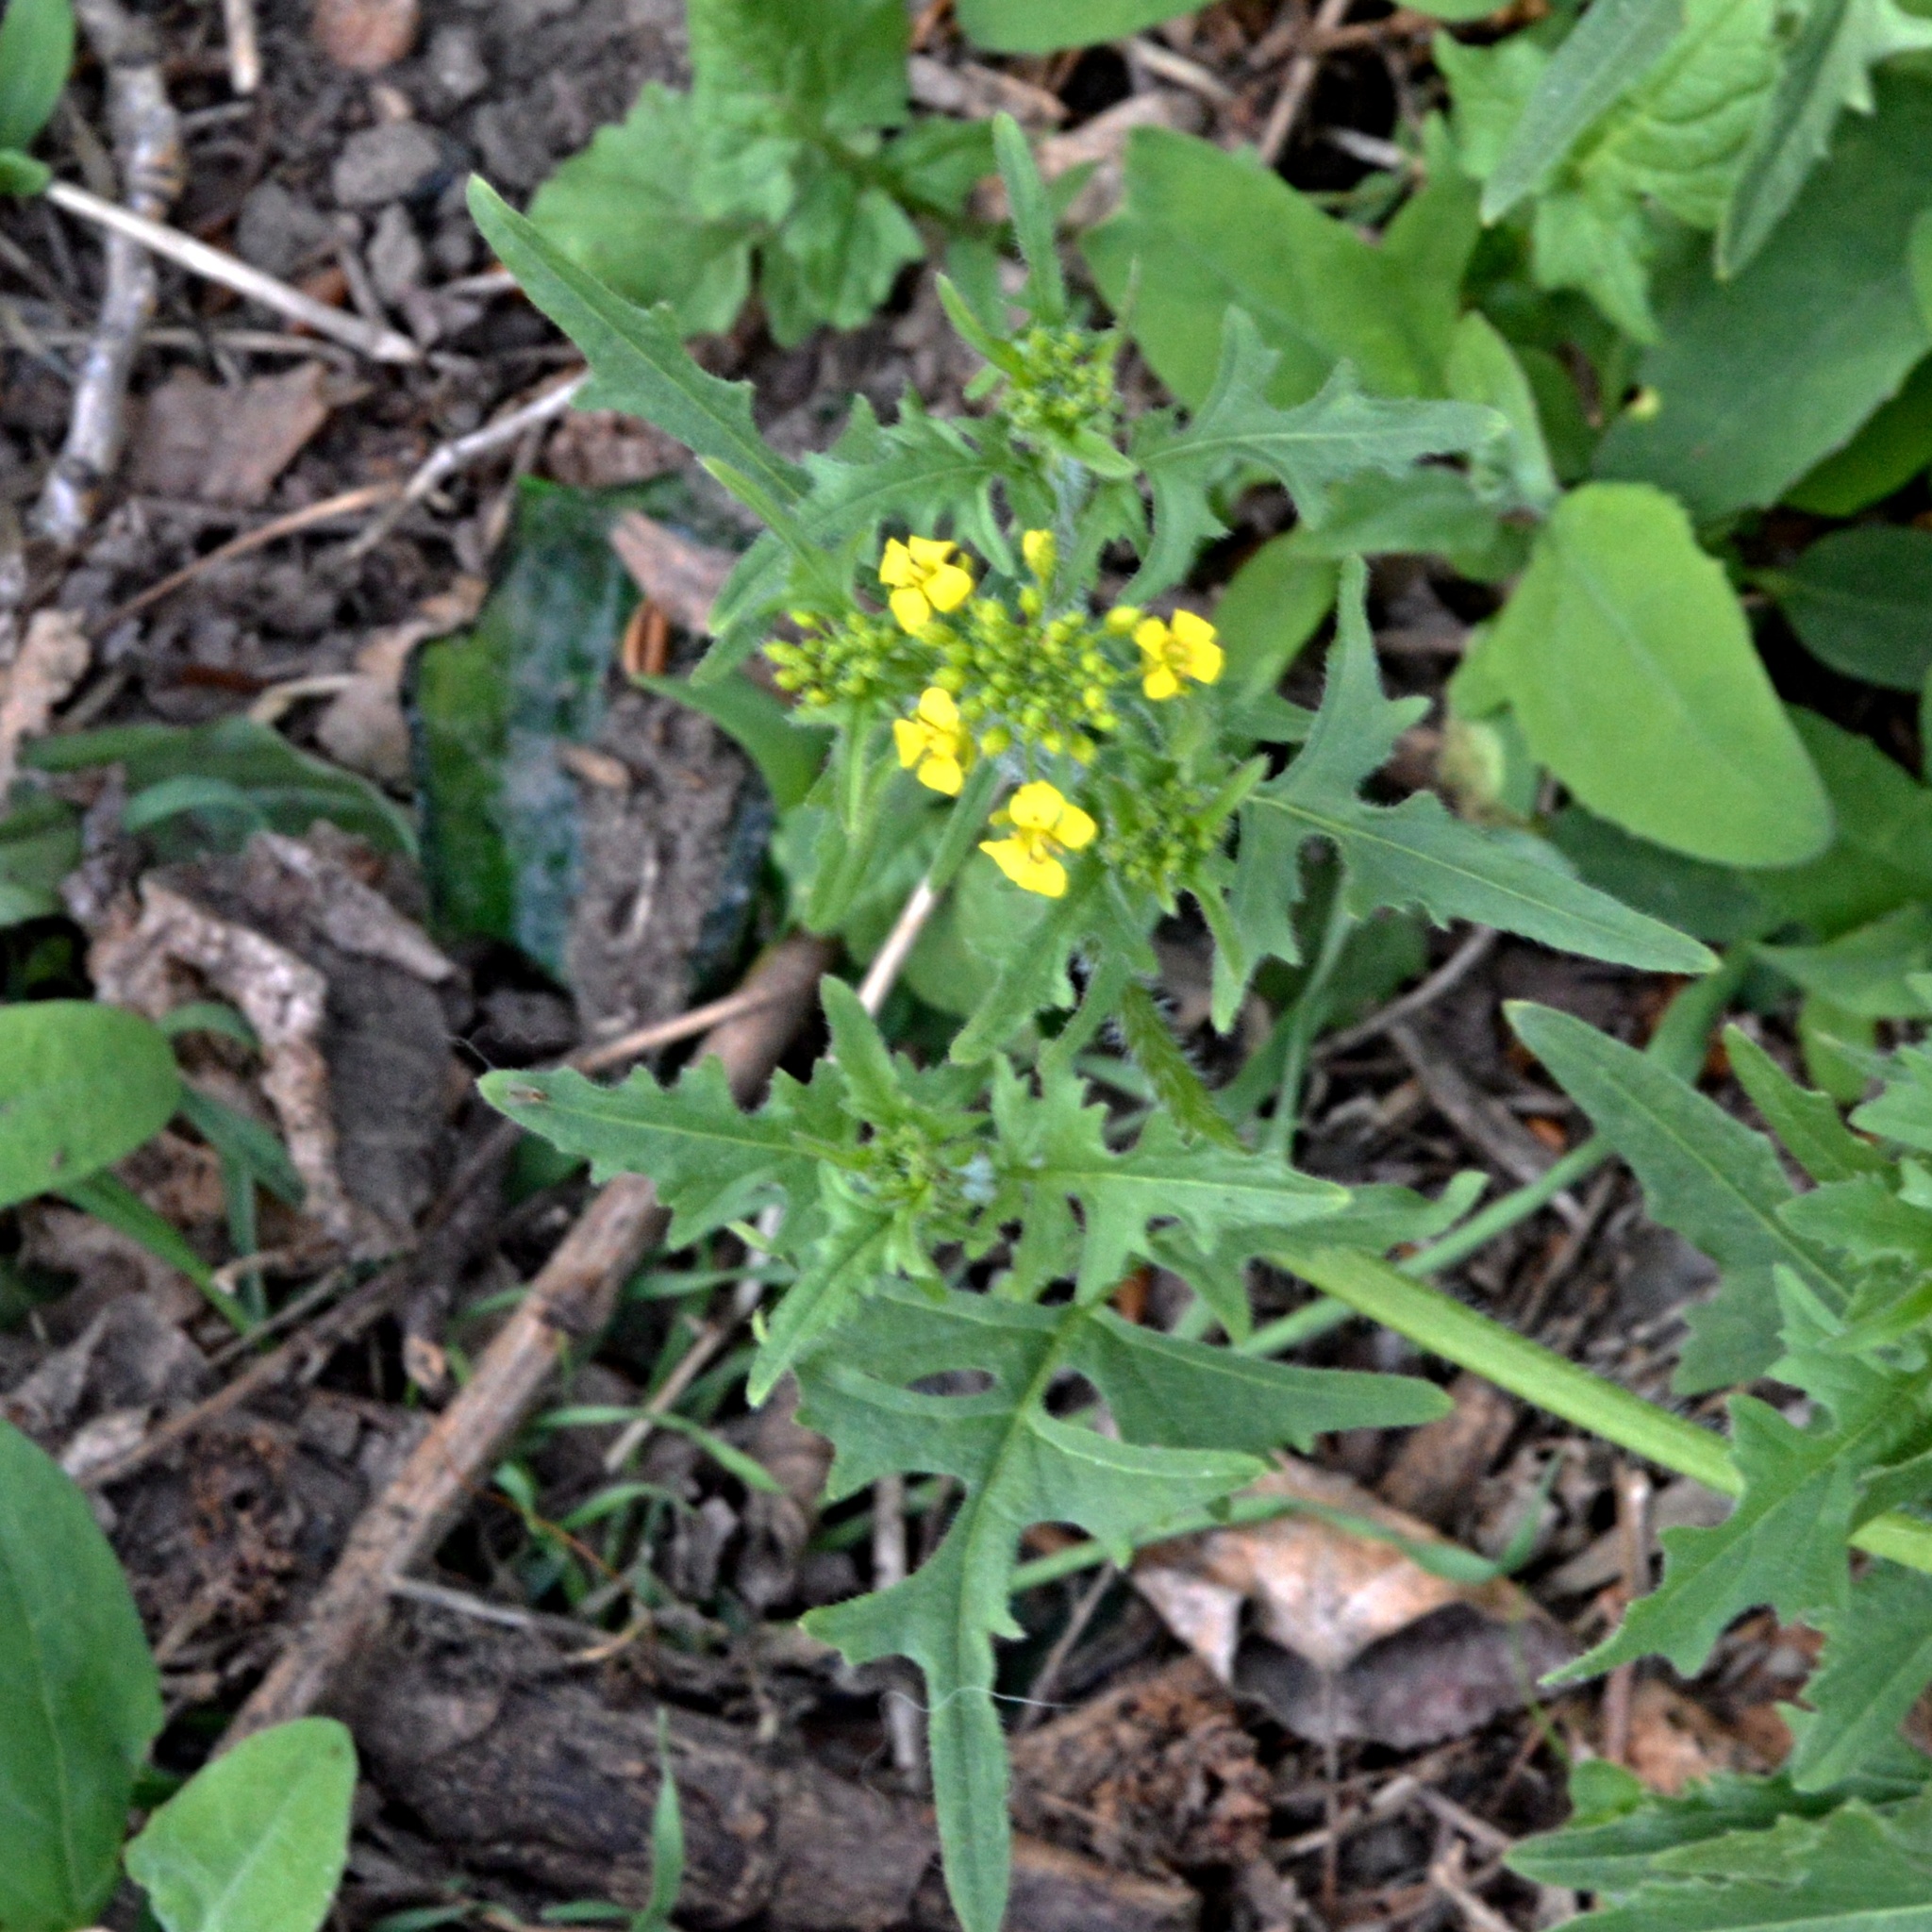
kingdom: Plantae
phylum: Tracheophyta
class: Magnoliopsida
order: Brassicales
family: Brassicaceae
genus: Sisymbrium
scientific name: Sisymbrium loeselii
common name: False london-rocket
